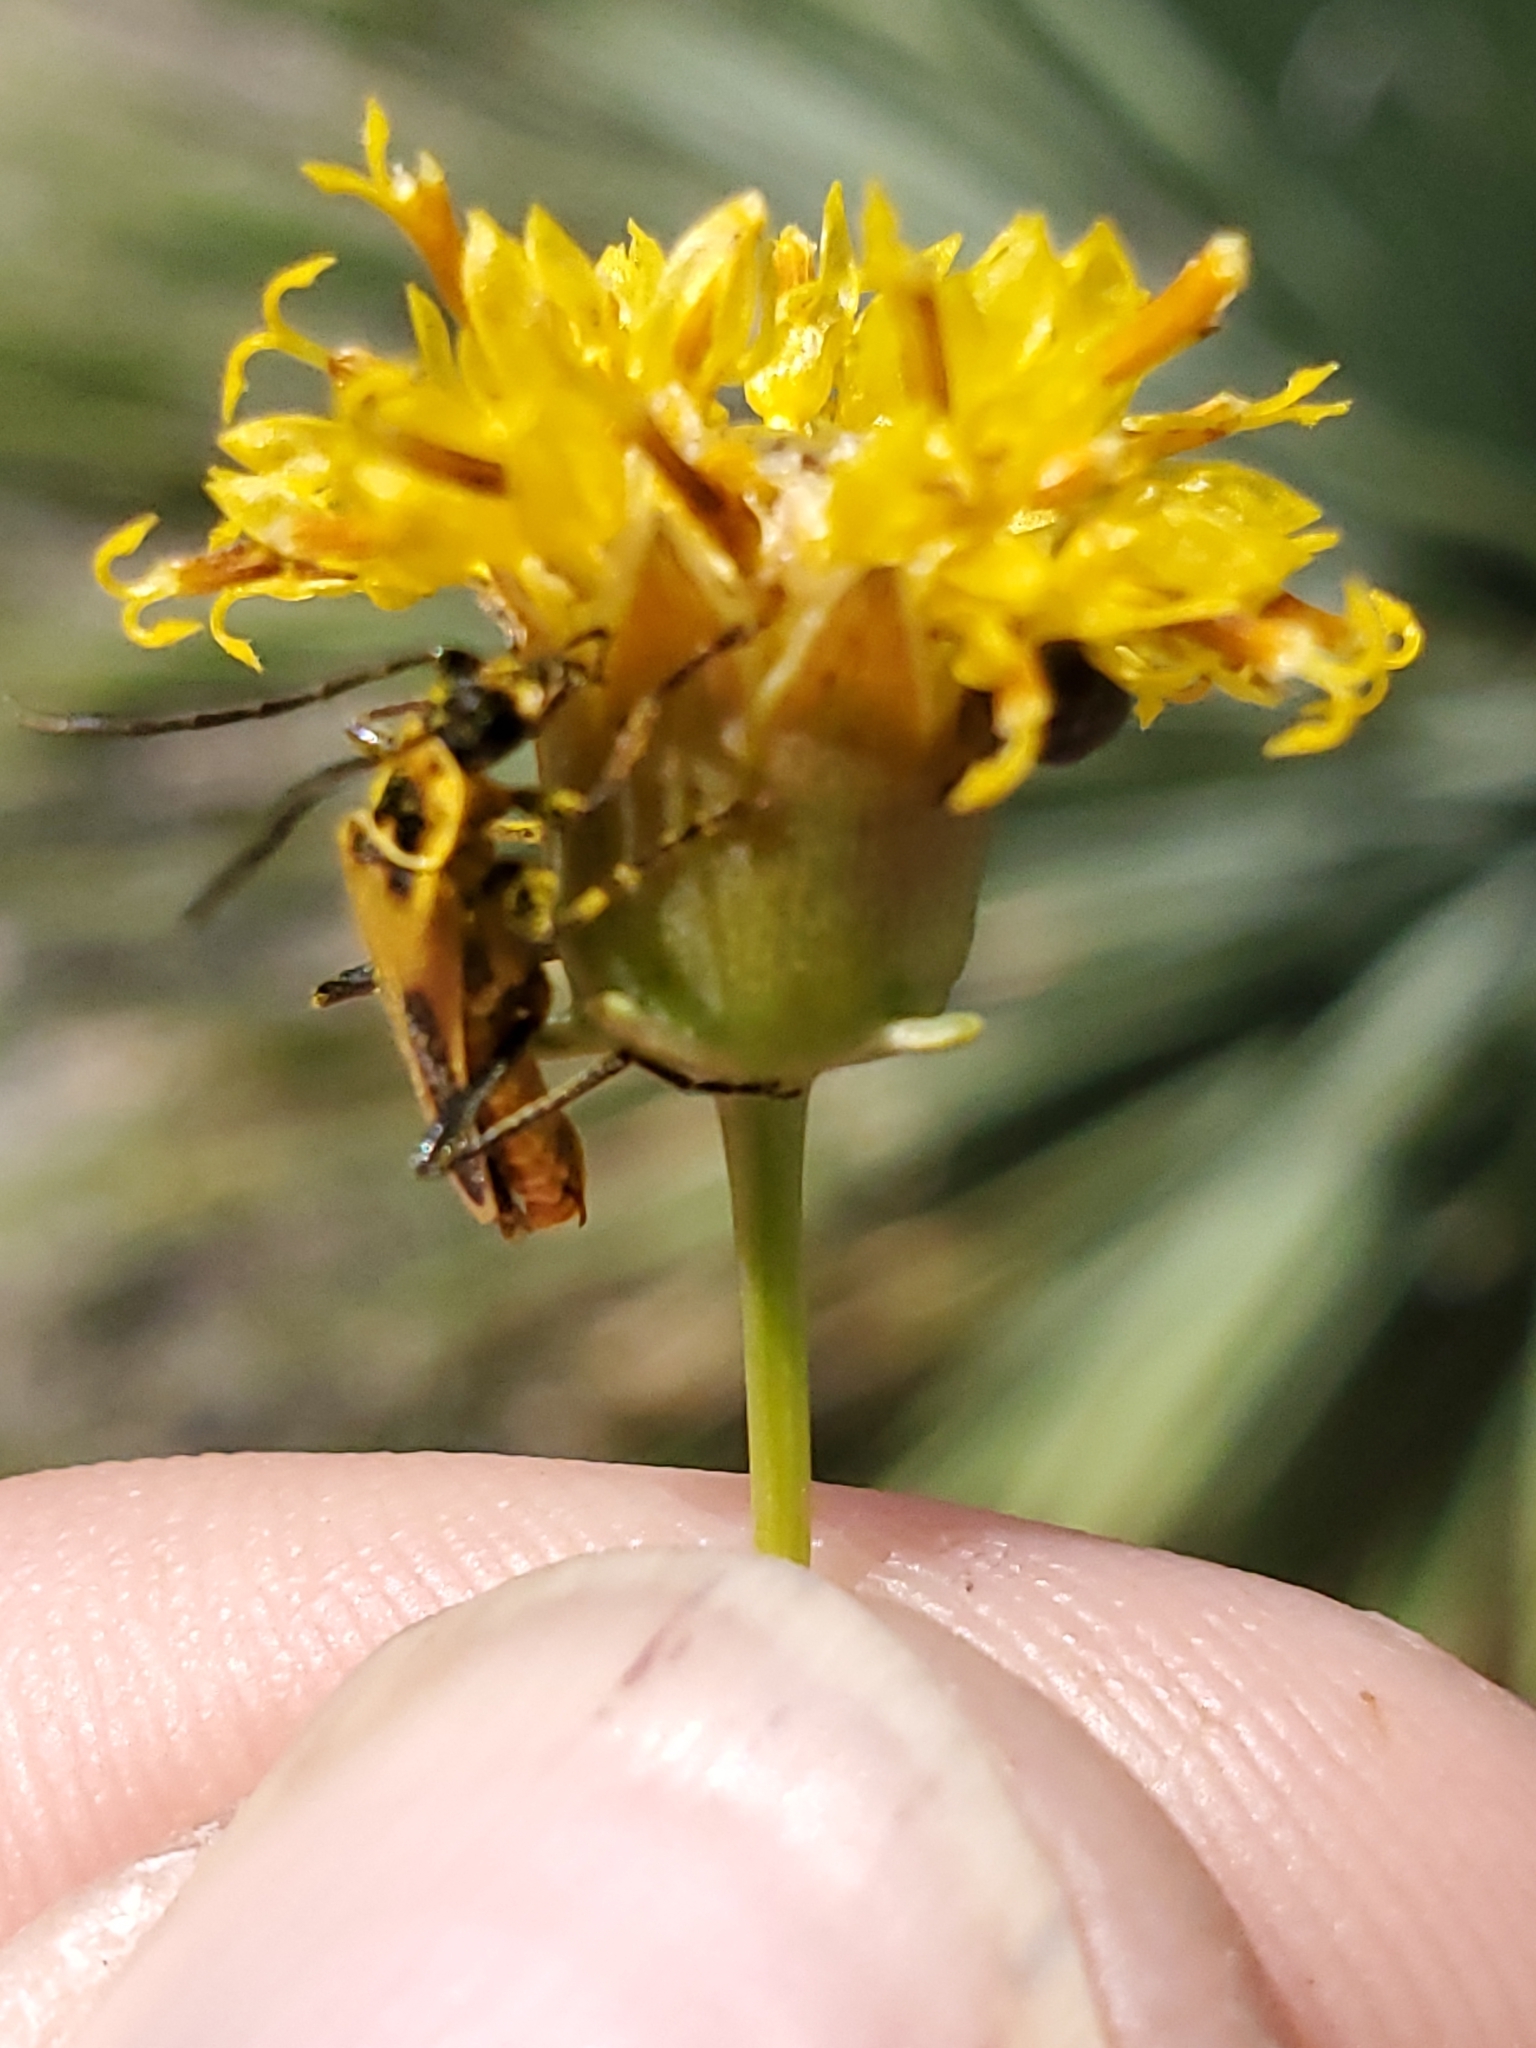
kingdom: Plantae
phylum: Tracheophyta
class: Magnoliopsida
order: Asterales
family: Asteraceae
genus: Thelesperma
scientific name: Thelesperma megapotamicum
